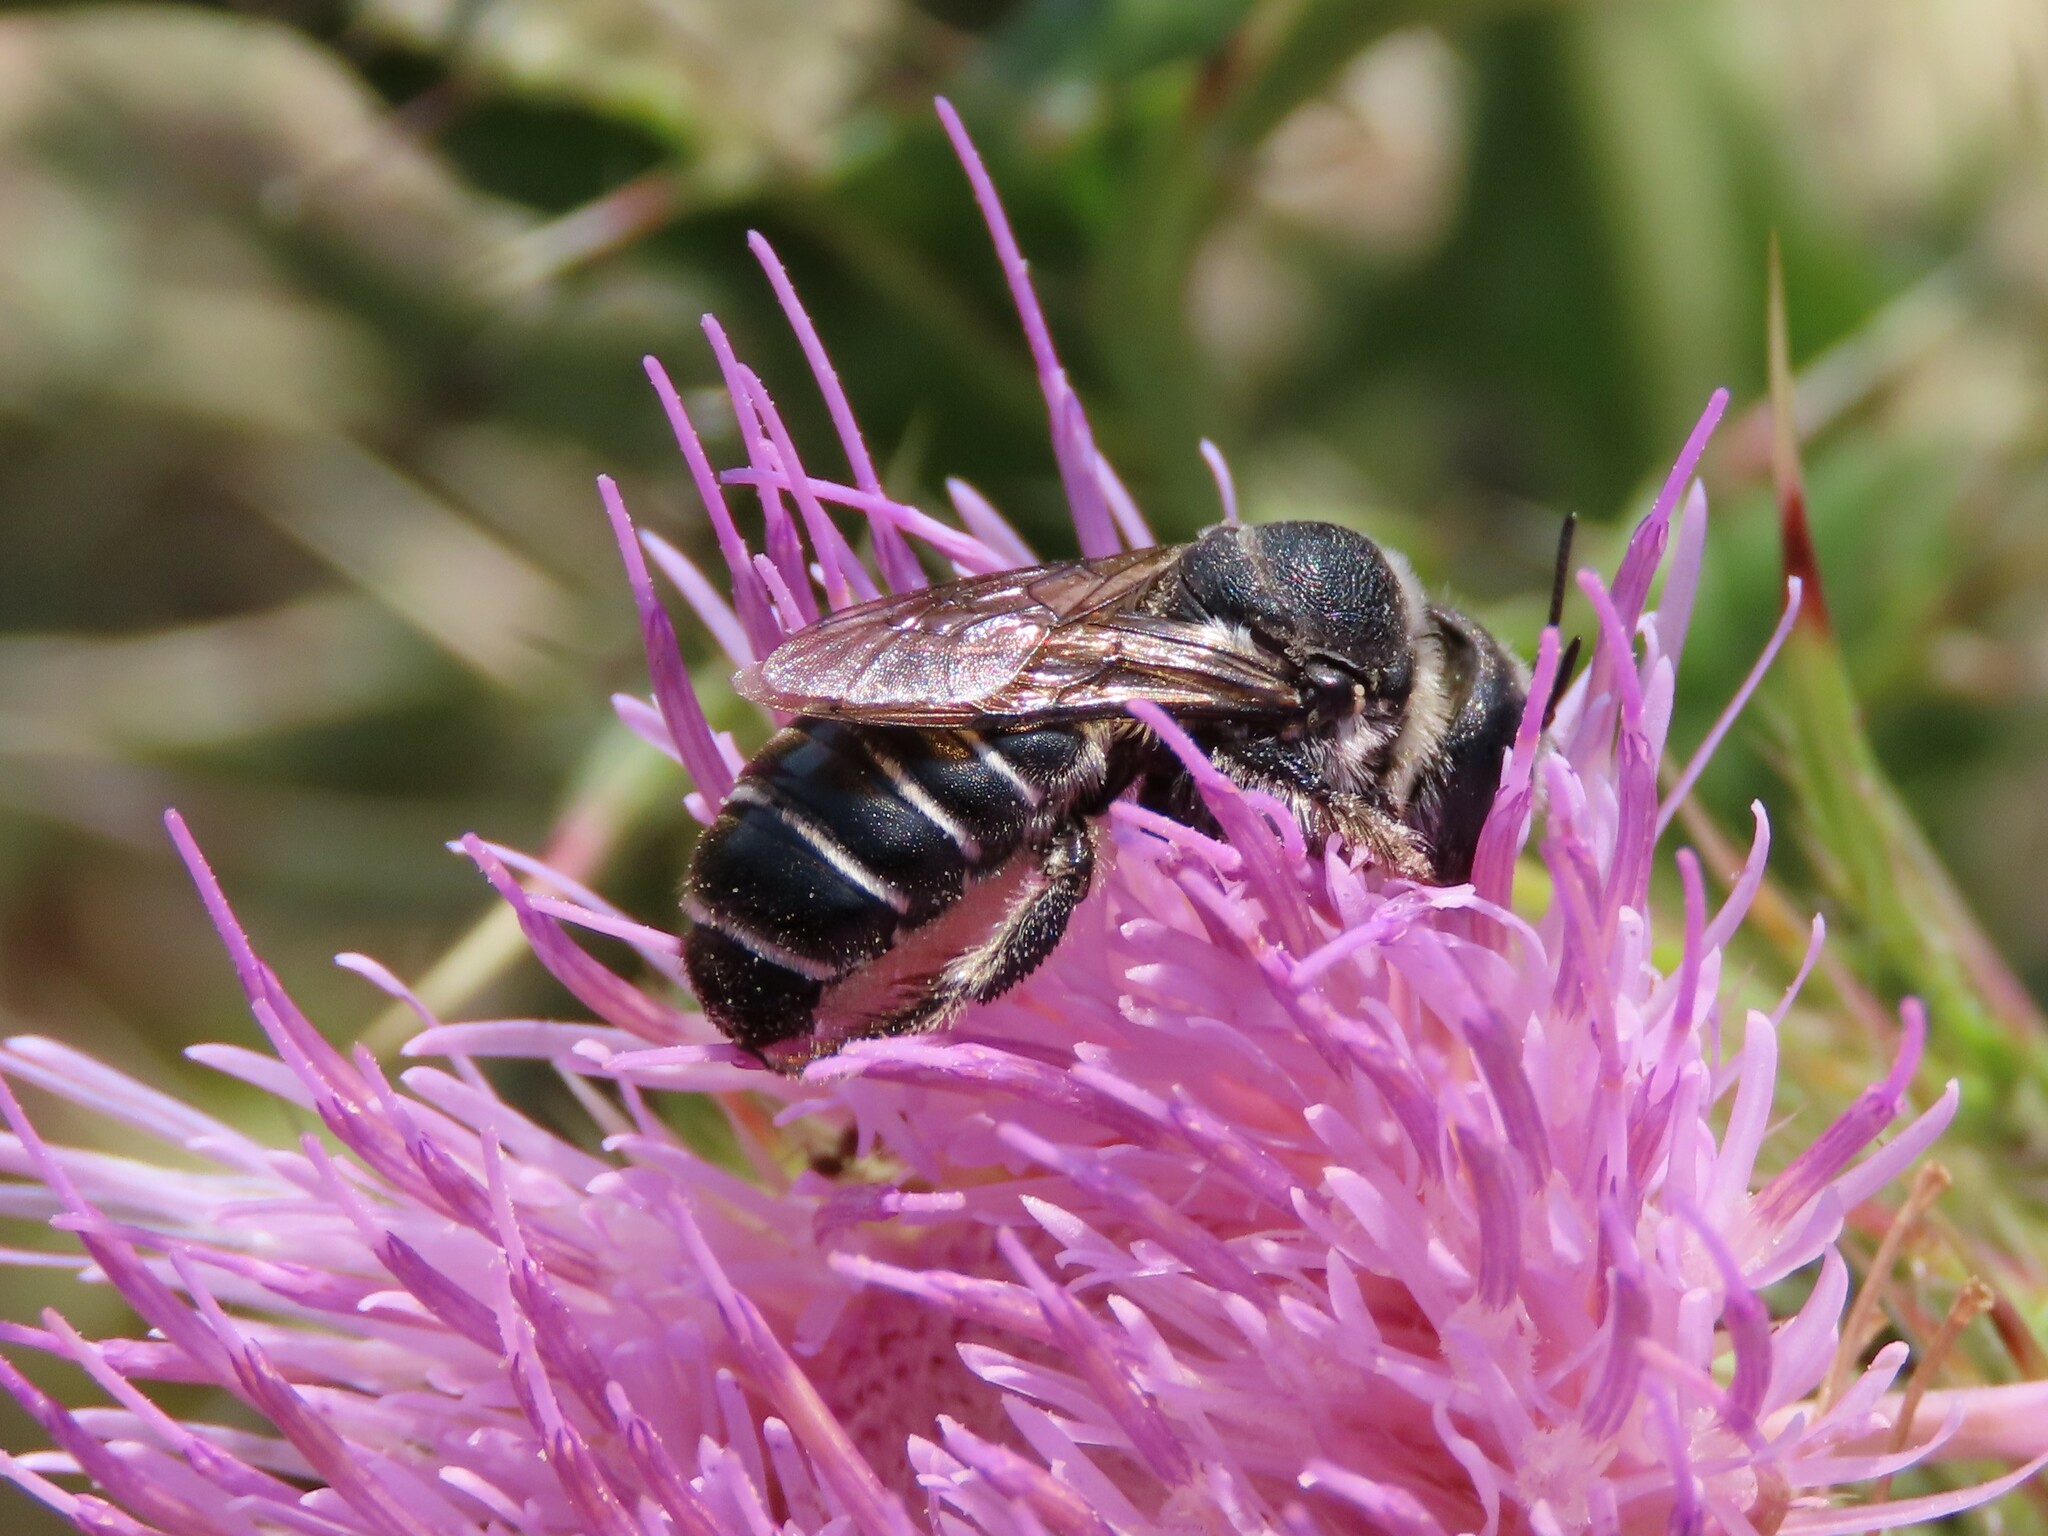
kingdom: Animalia
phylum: Arthropoda
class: Insecta
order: Hymenoptera
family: Megachilidae
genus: Lithurgopsis
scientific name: Lithurgopsis gibbosa
